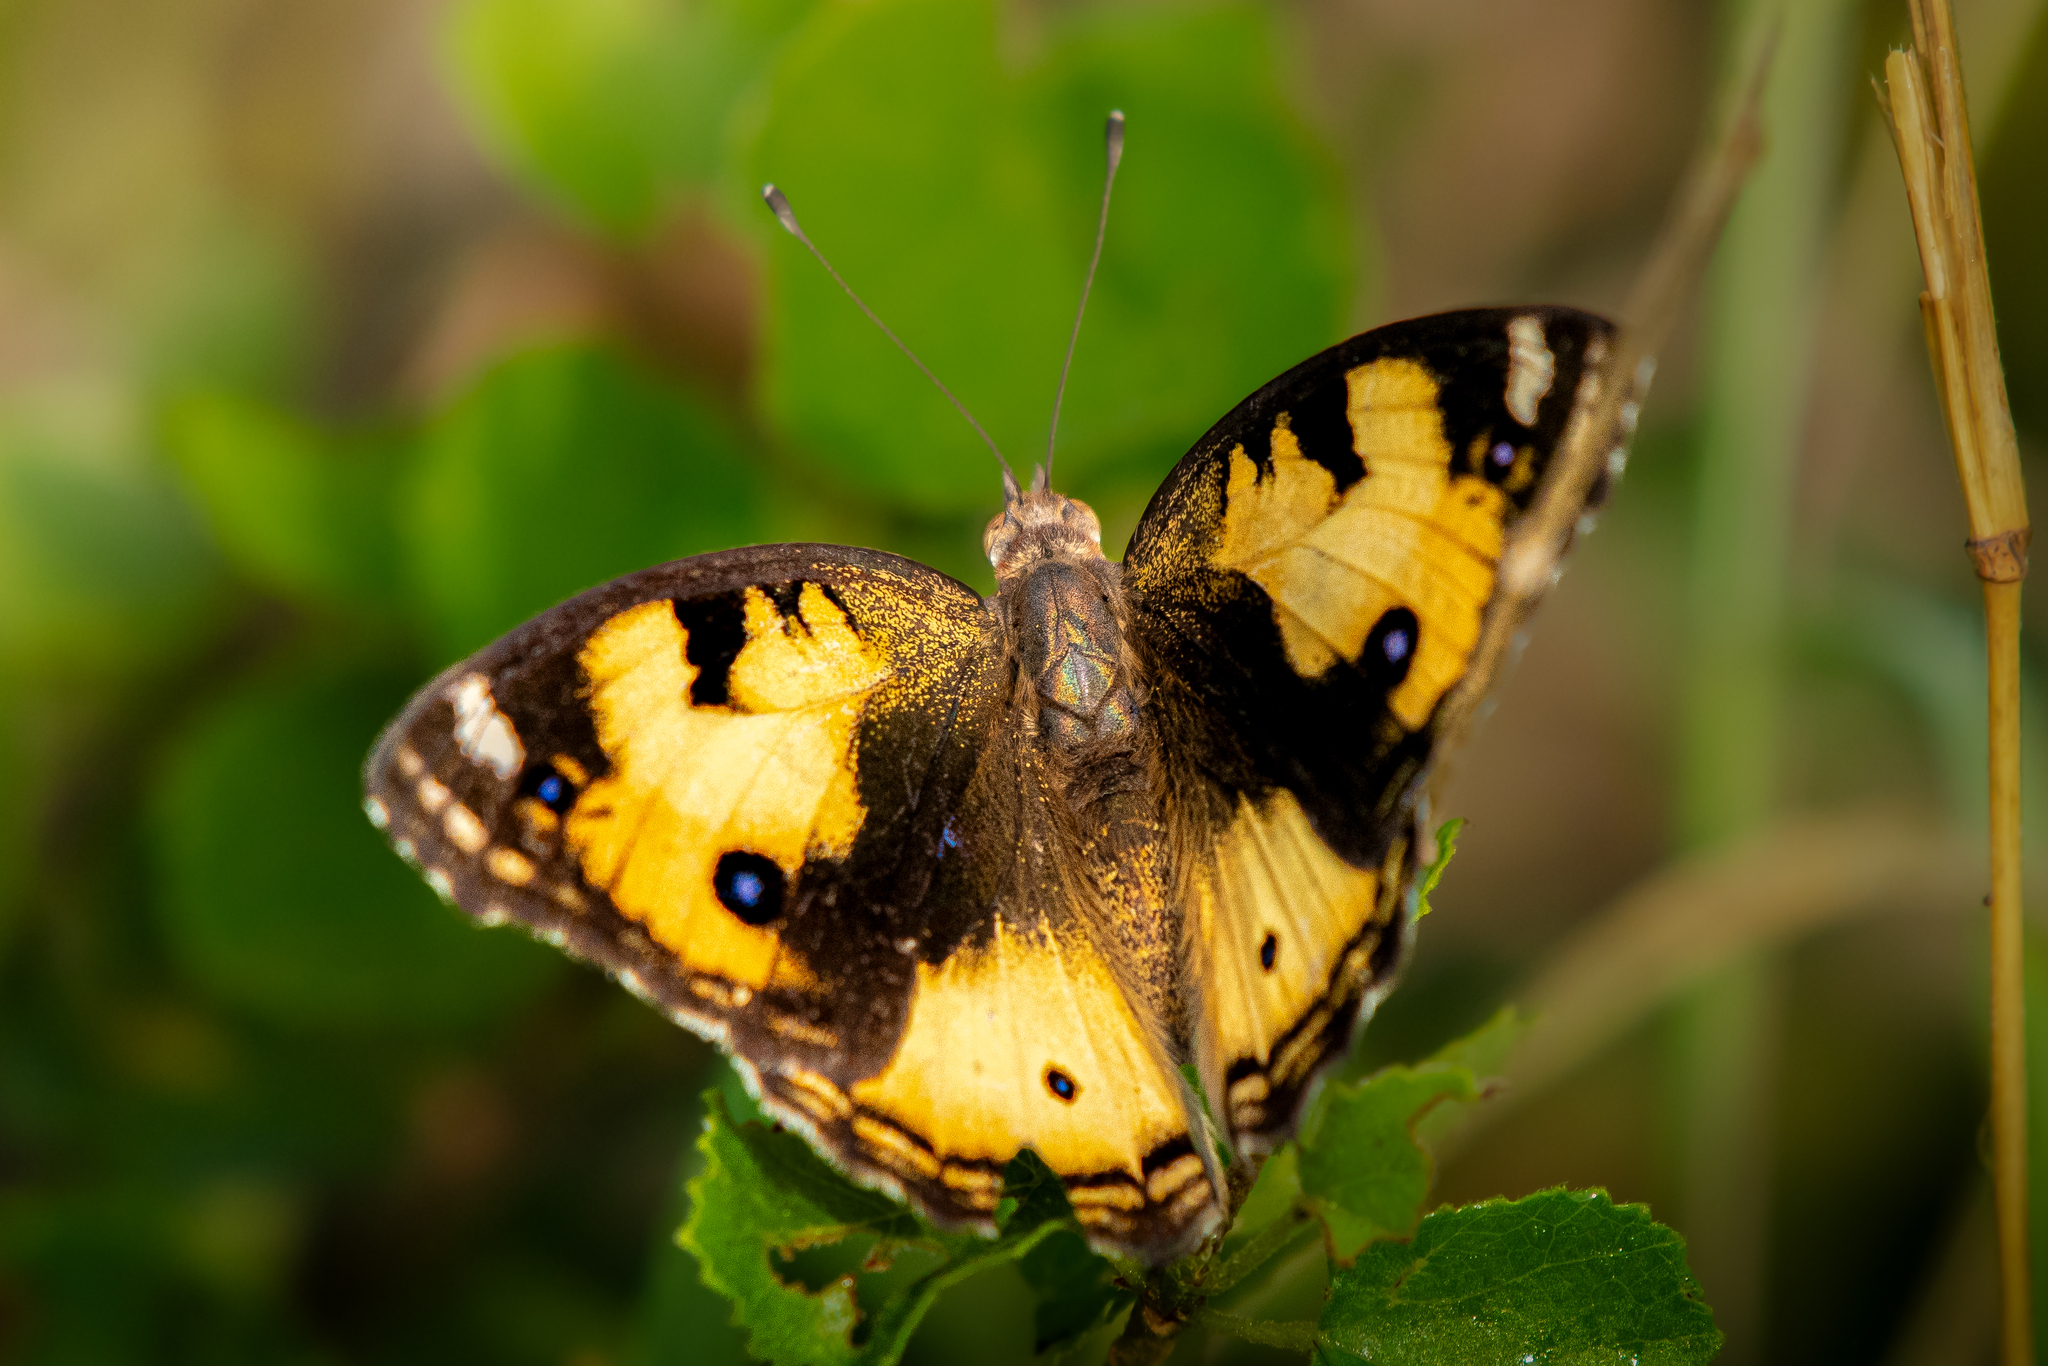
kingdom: Animalia
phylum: Arthropoda
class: Insecta
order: Lepidoptera
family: Nymphalidae
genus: Junonia
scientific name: Junonia hierta
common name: Yellow pansy
